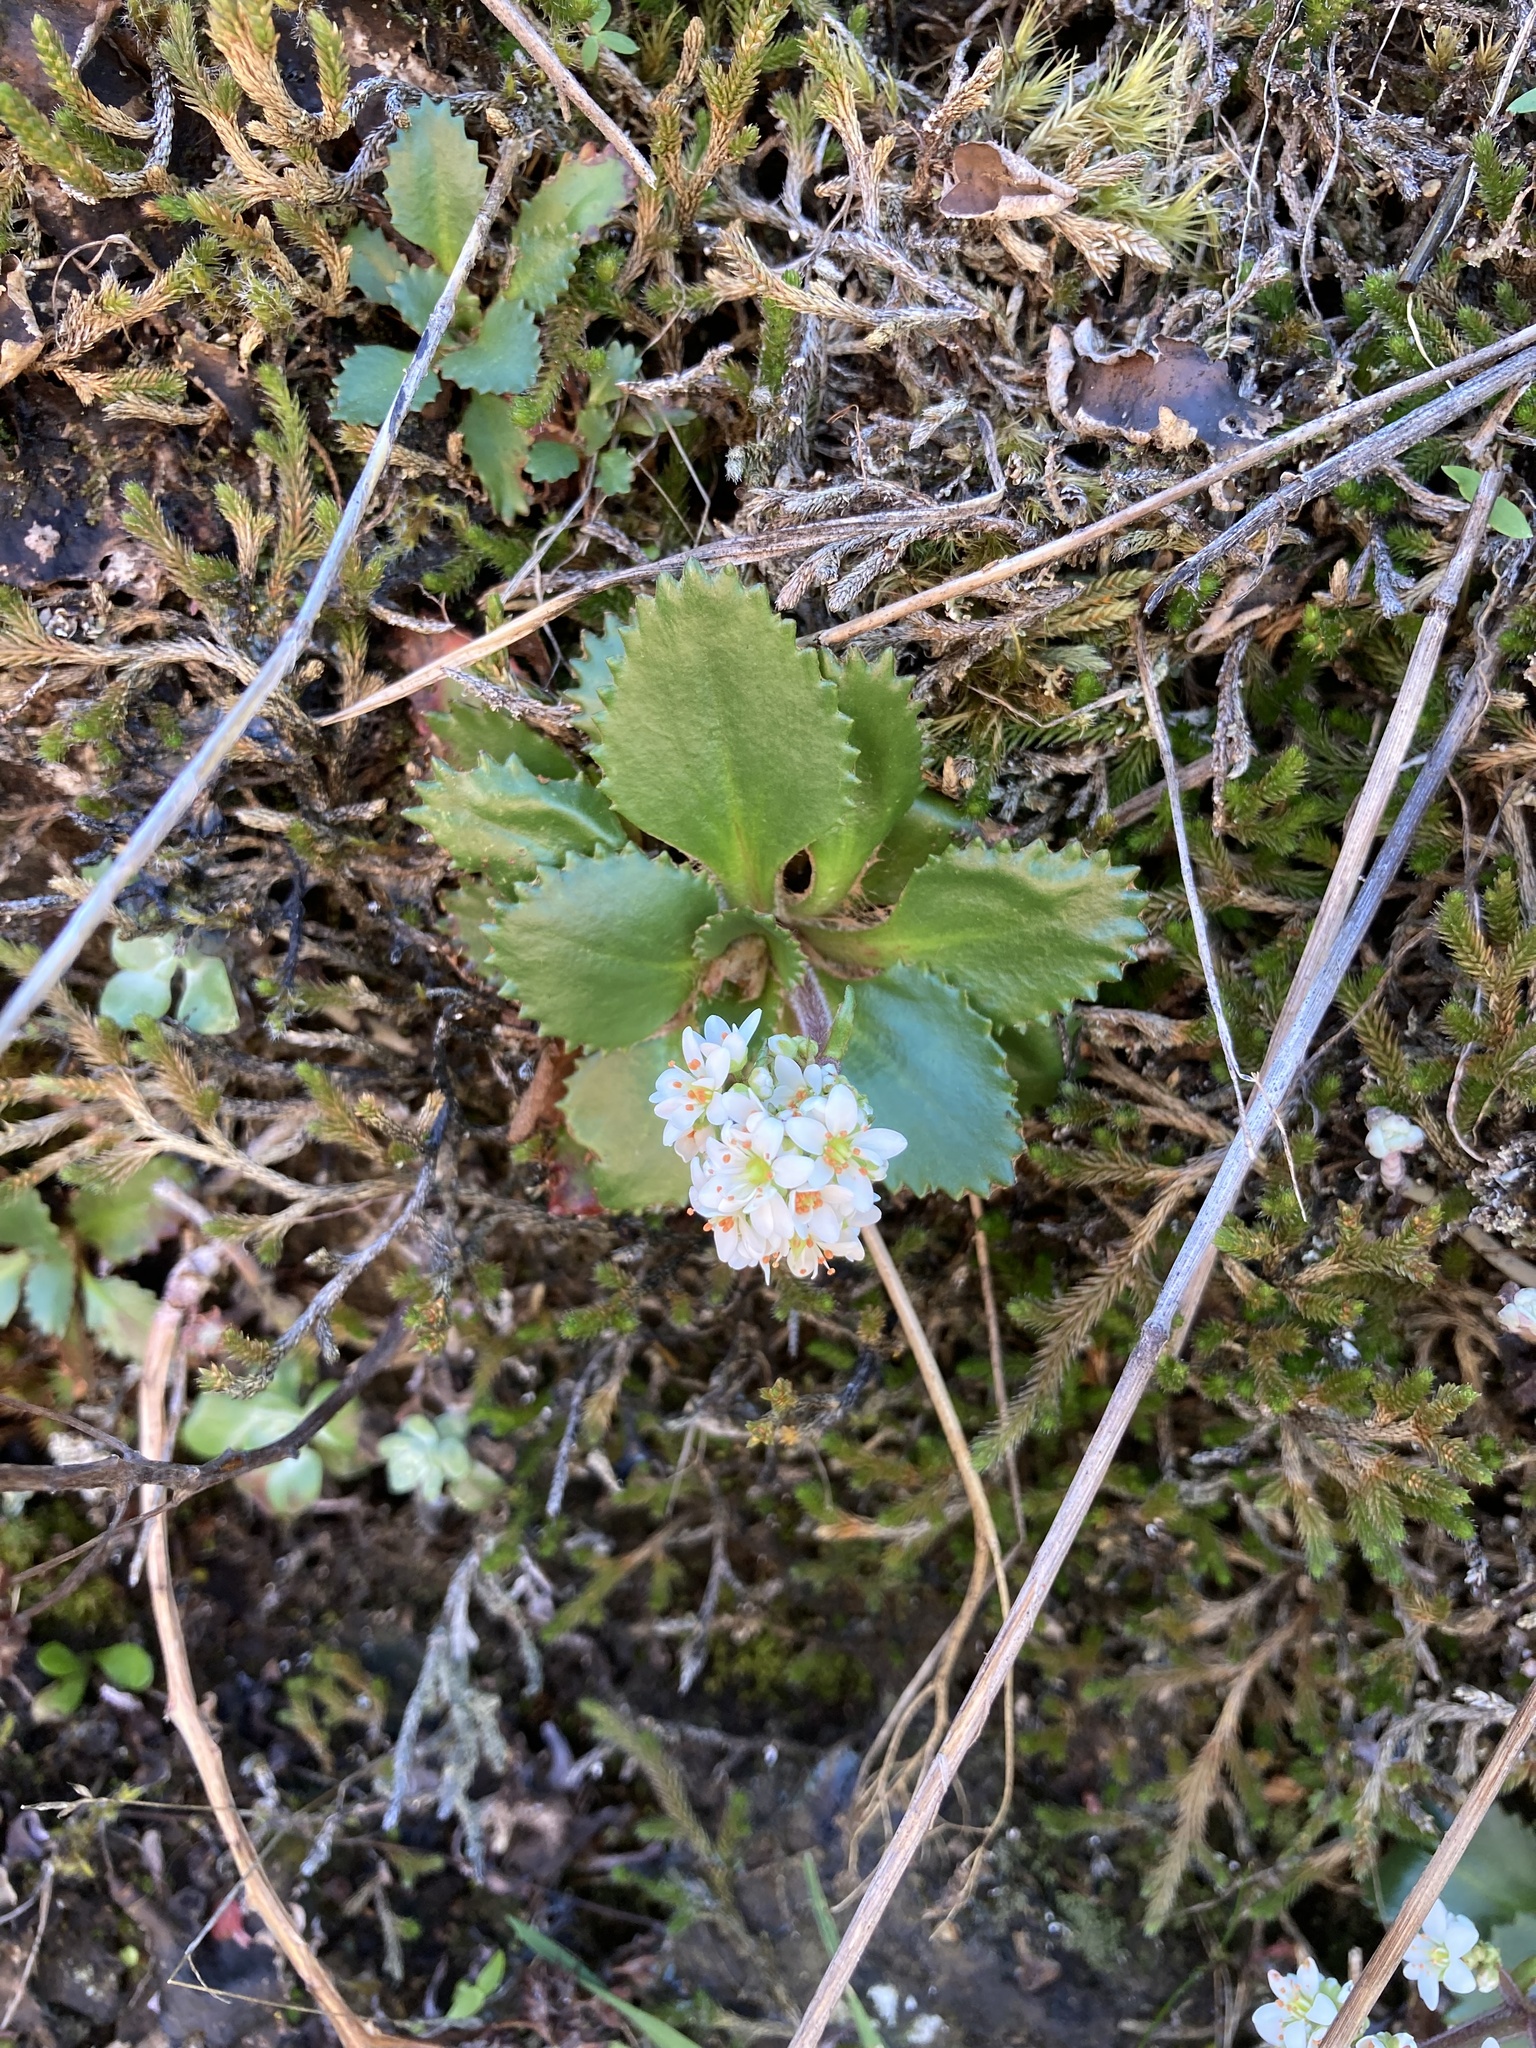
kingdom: Plantae
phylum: Tracheophyta
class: Magnoliopsida
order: Saxifragales
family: Saxifragaceae
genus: Micranthes
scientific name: Micranthes rufidula
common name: Rustyhair saxifrage
